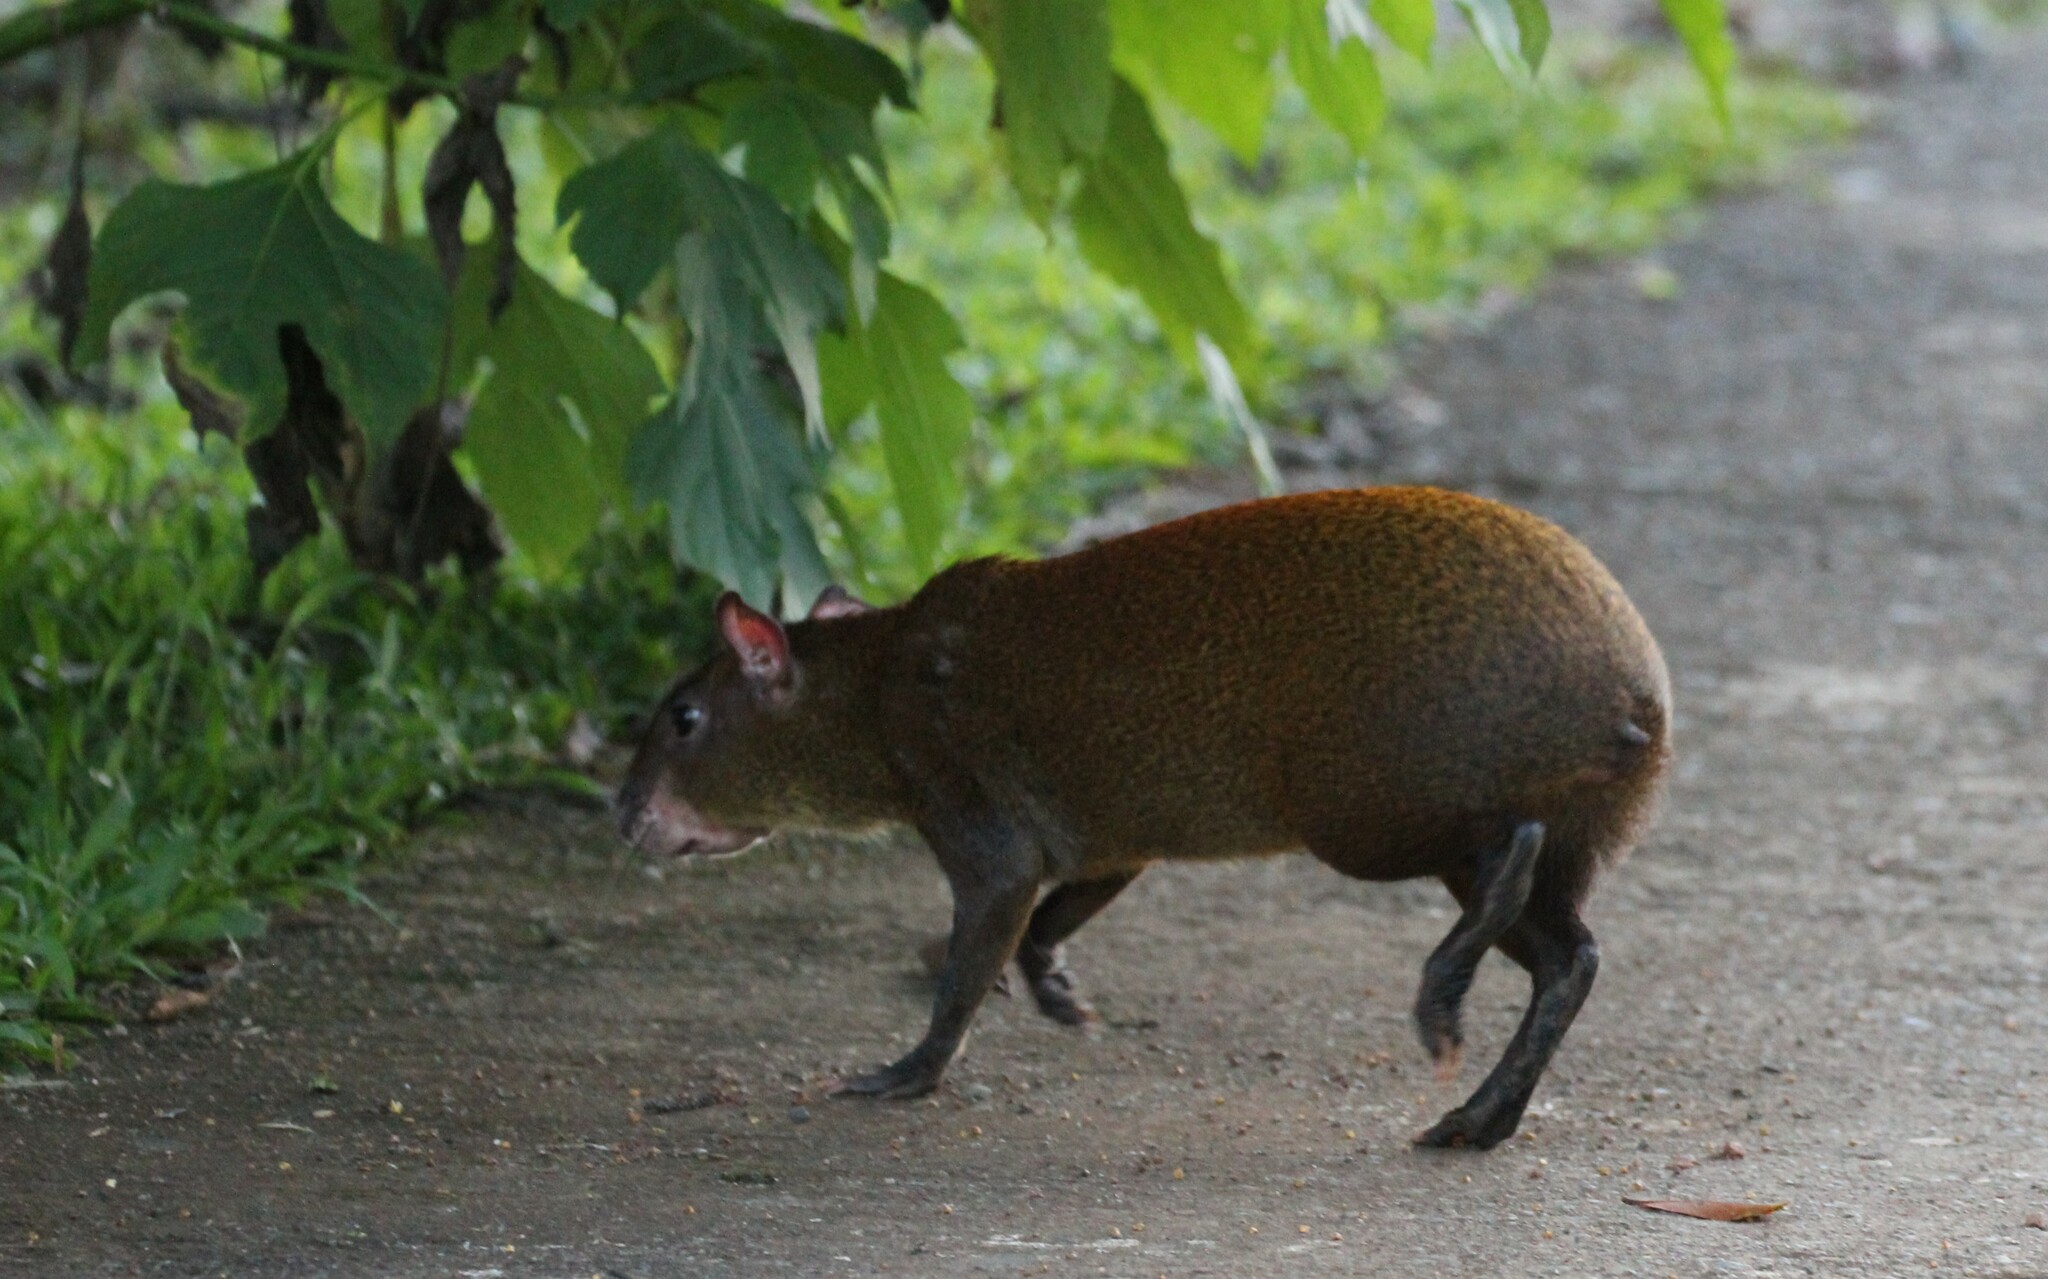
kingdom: Animalia
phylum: Chordata
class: Mammalia
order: Rodentia
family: Dasyproctidae
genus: Dasyprocta
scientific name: Dasyprocta punctata
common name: Central american agouti
